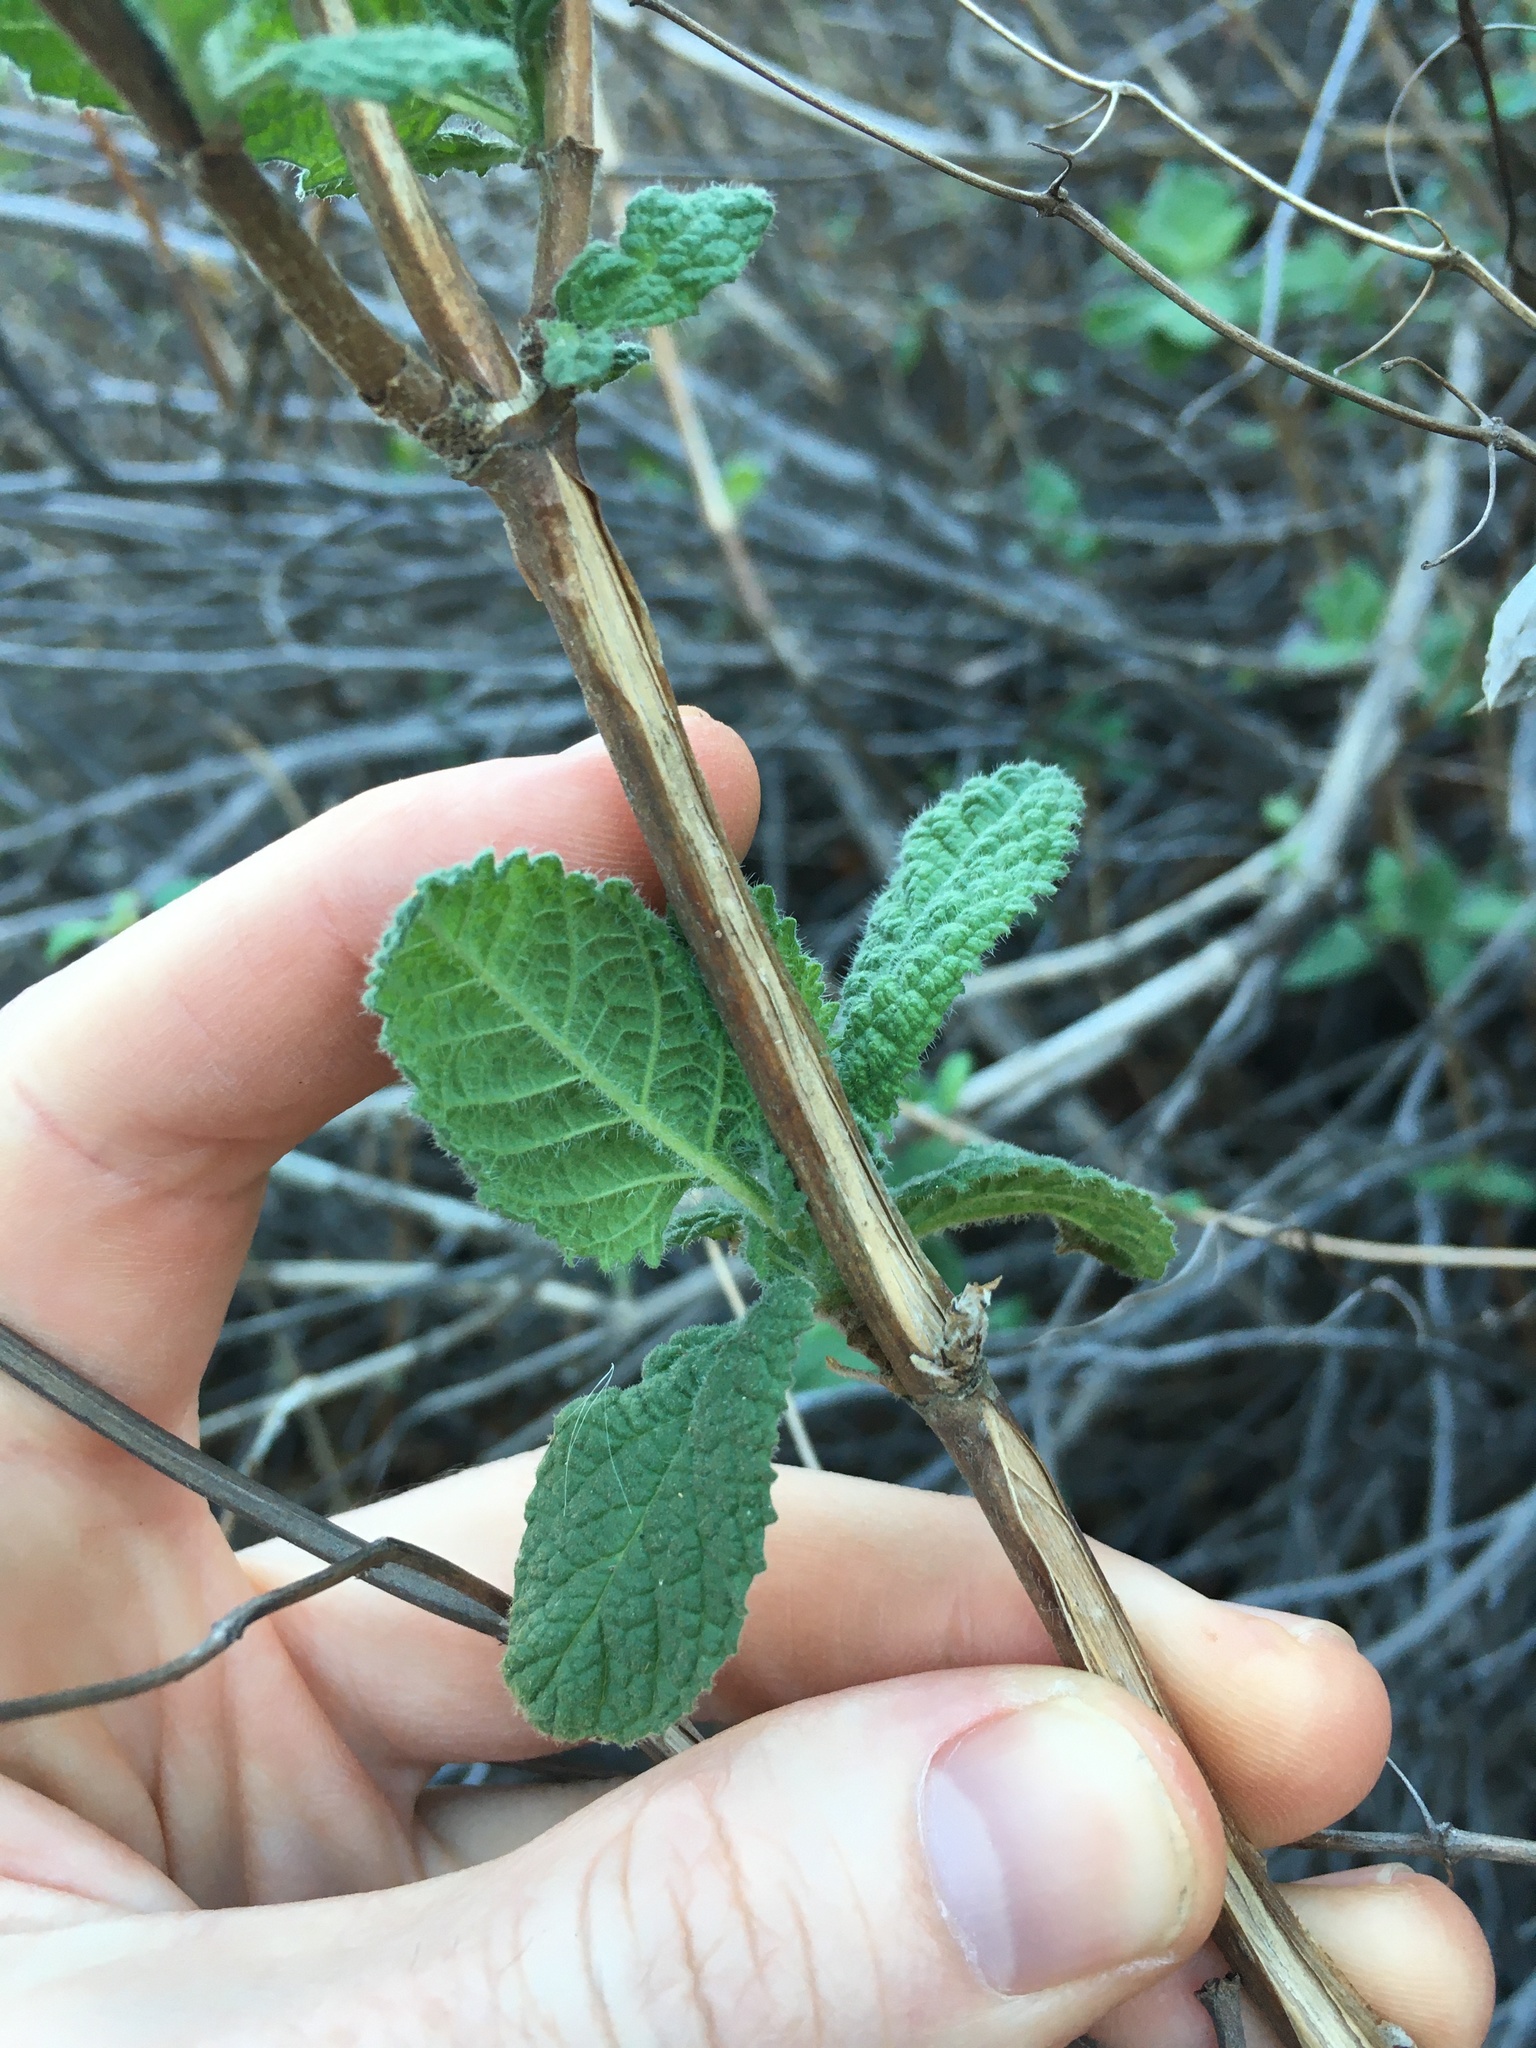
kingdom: Plantae
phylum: Tracheophyta
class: Magnoliopsida
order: Lamiales
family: Lamiaceae
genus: Lepechinia
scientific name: Lepechinia rossii
